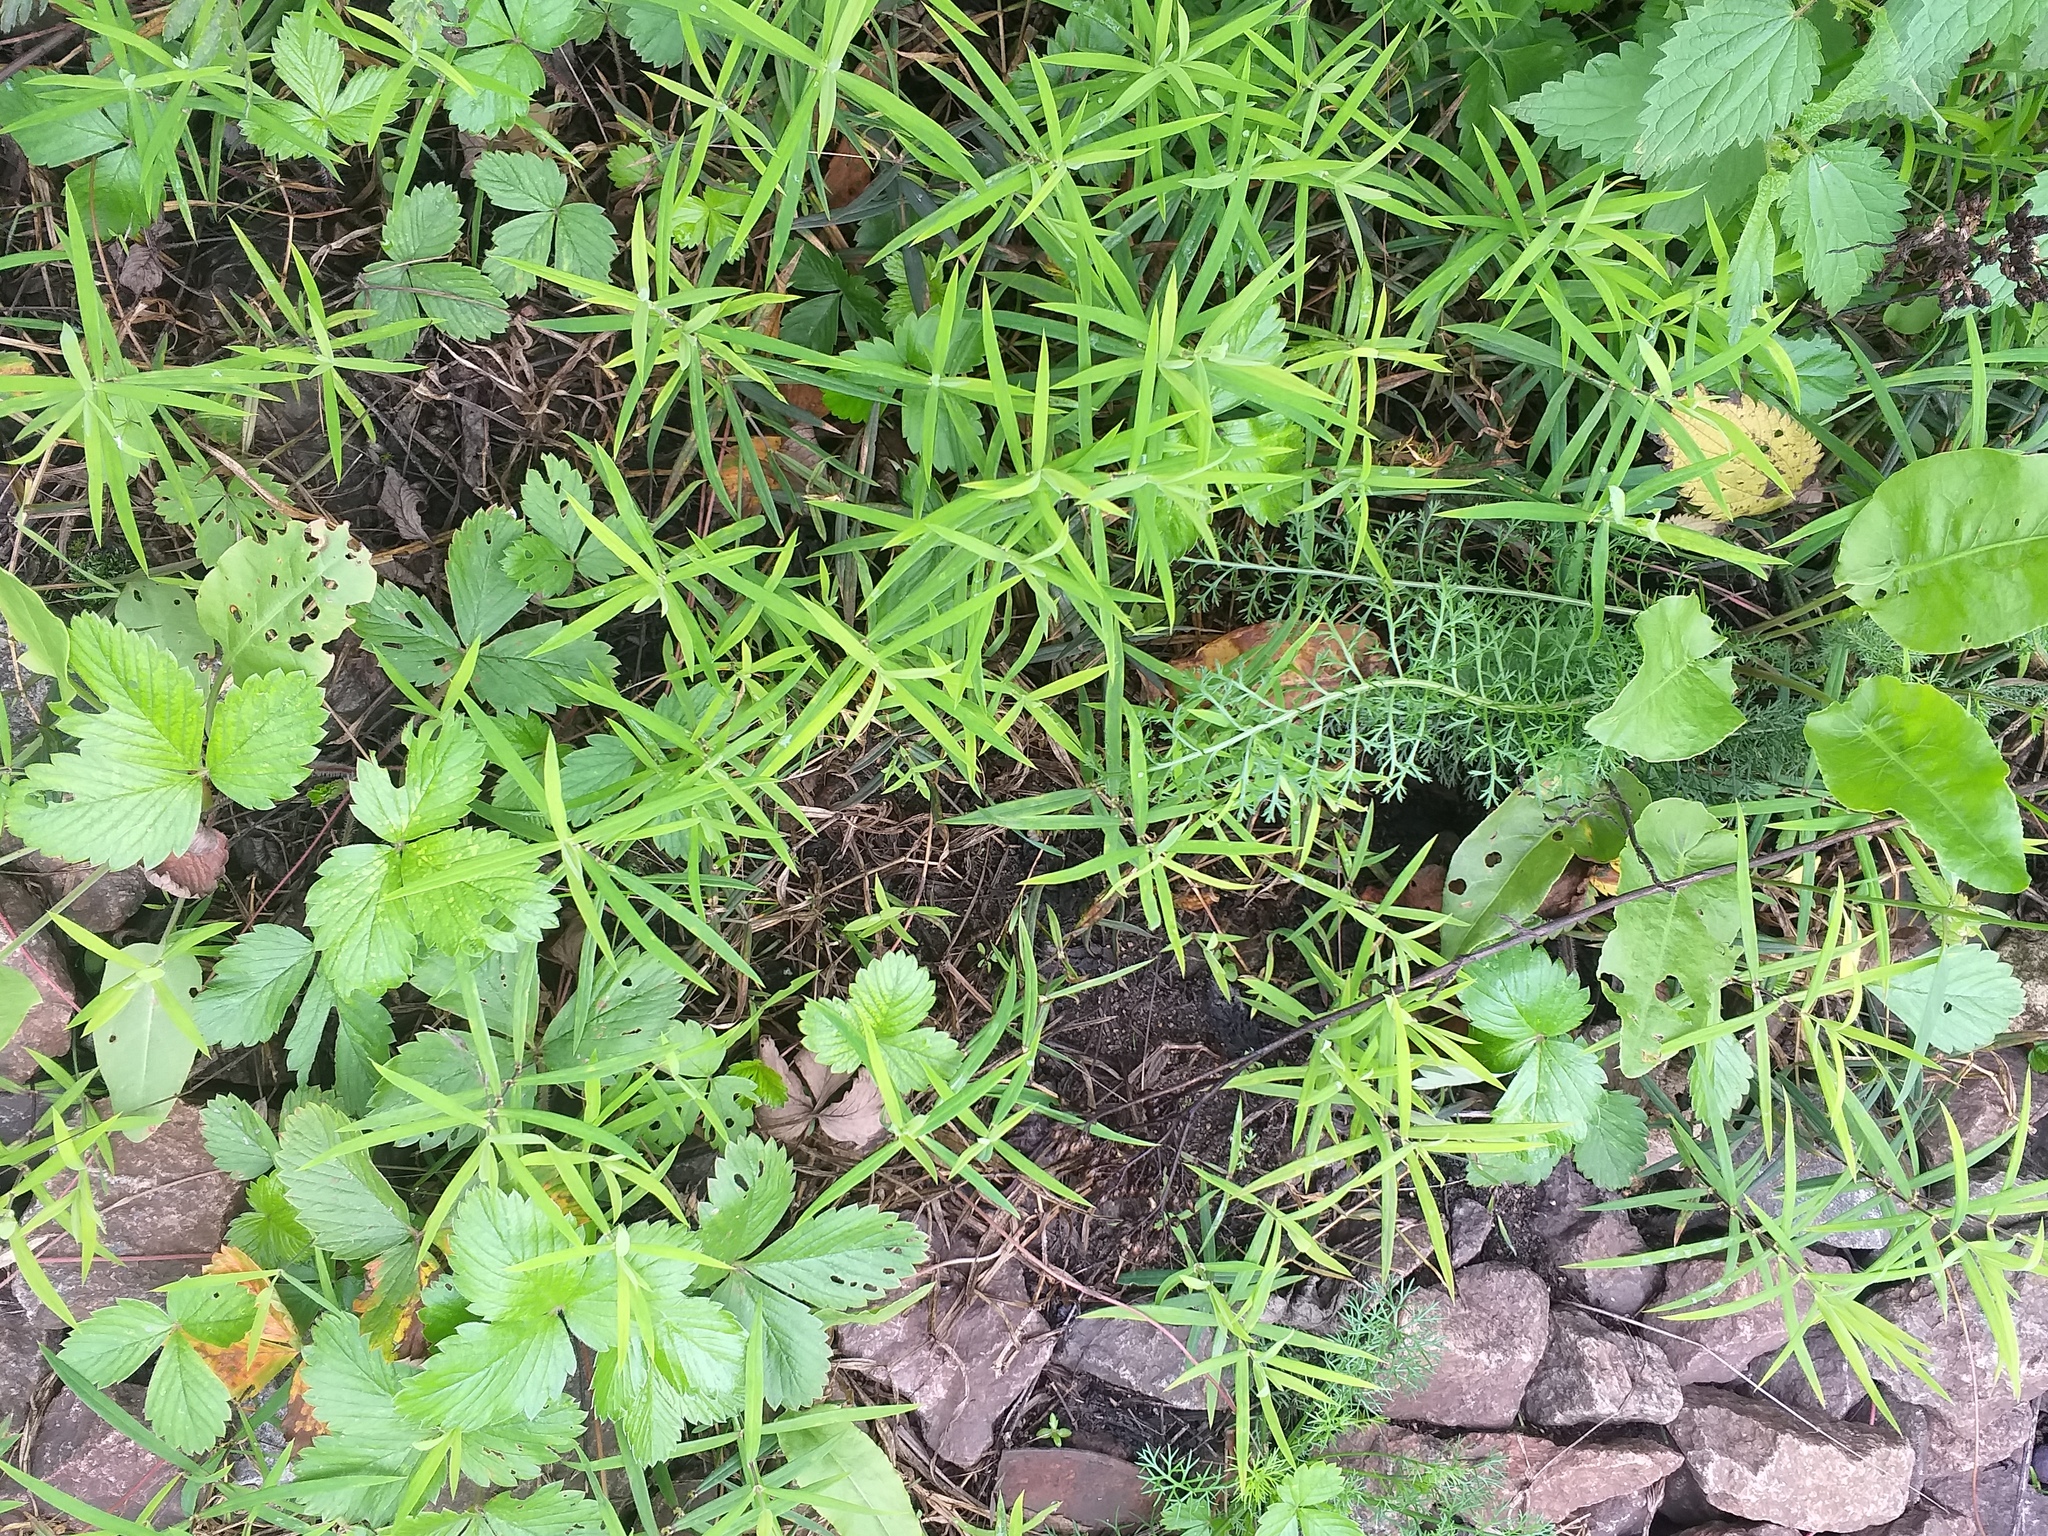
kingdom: Plantae
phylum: Tracheophyta
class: Magnoliopsida
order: Caryophyllales
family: Caryophyllaceae
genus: Rabelera
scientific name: Rabelera holostea
